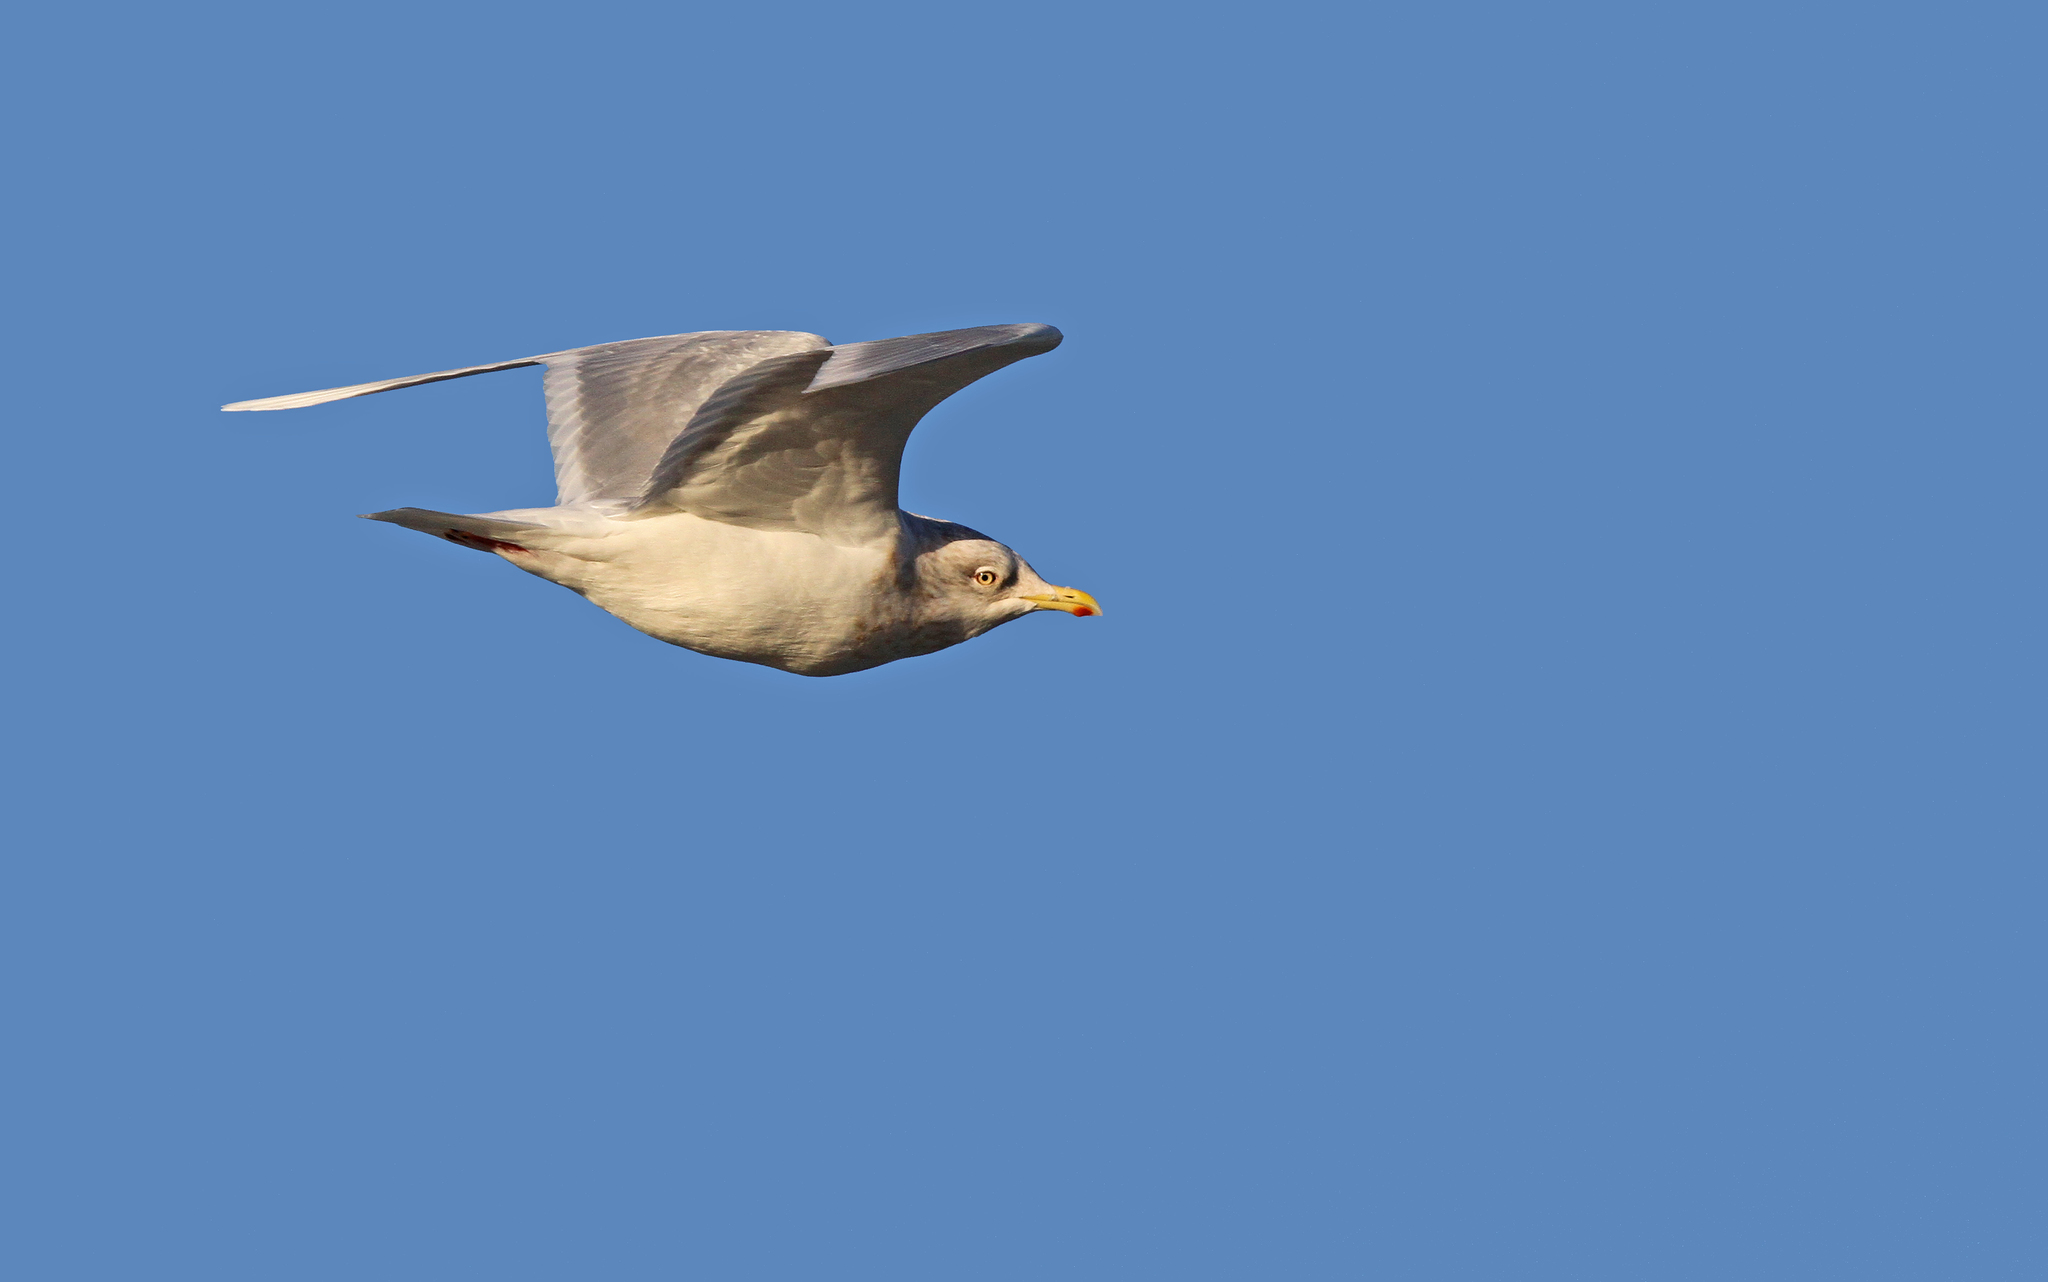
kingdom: Animalia
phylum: Chordata
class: Aves
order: Charadriiformes
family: Laridae
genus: Larus
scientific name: Larus glaucoides
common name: Iceland gull
